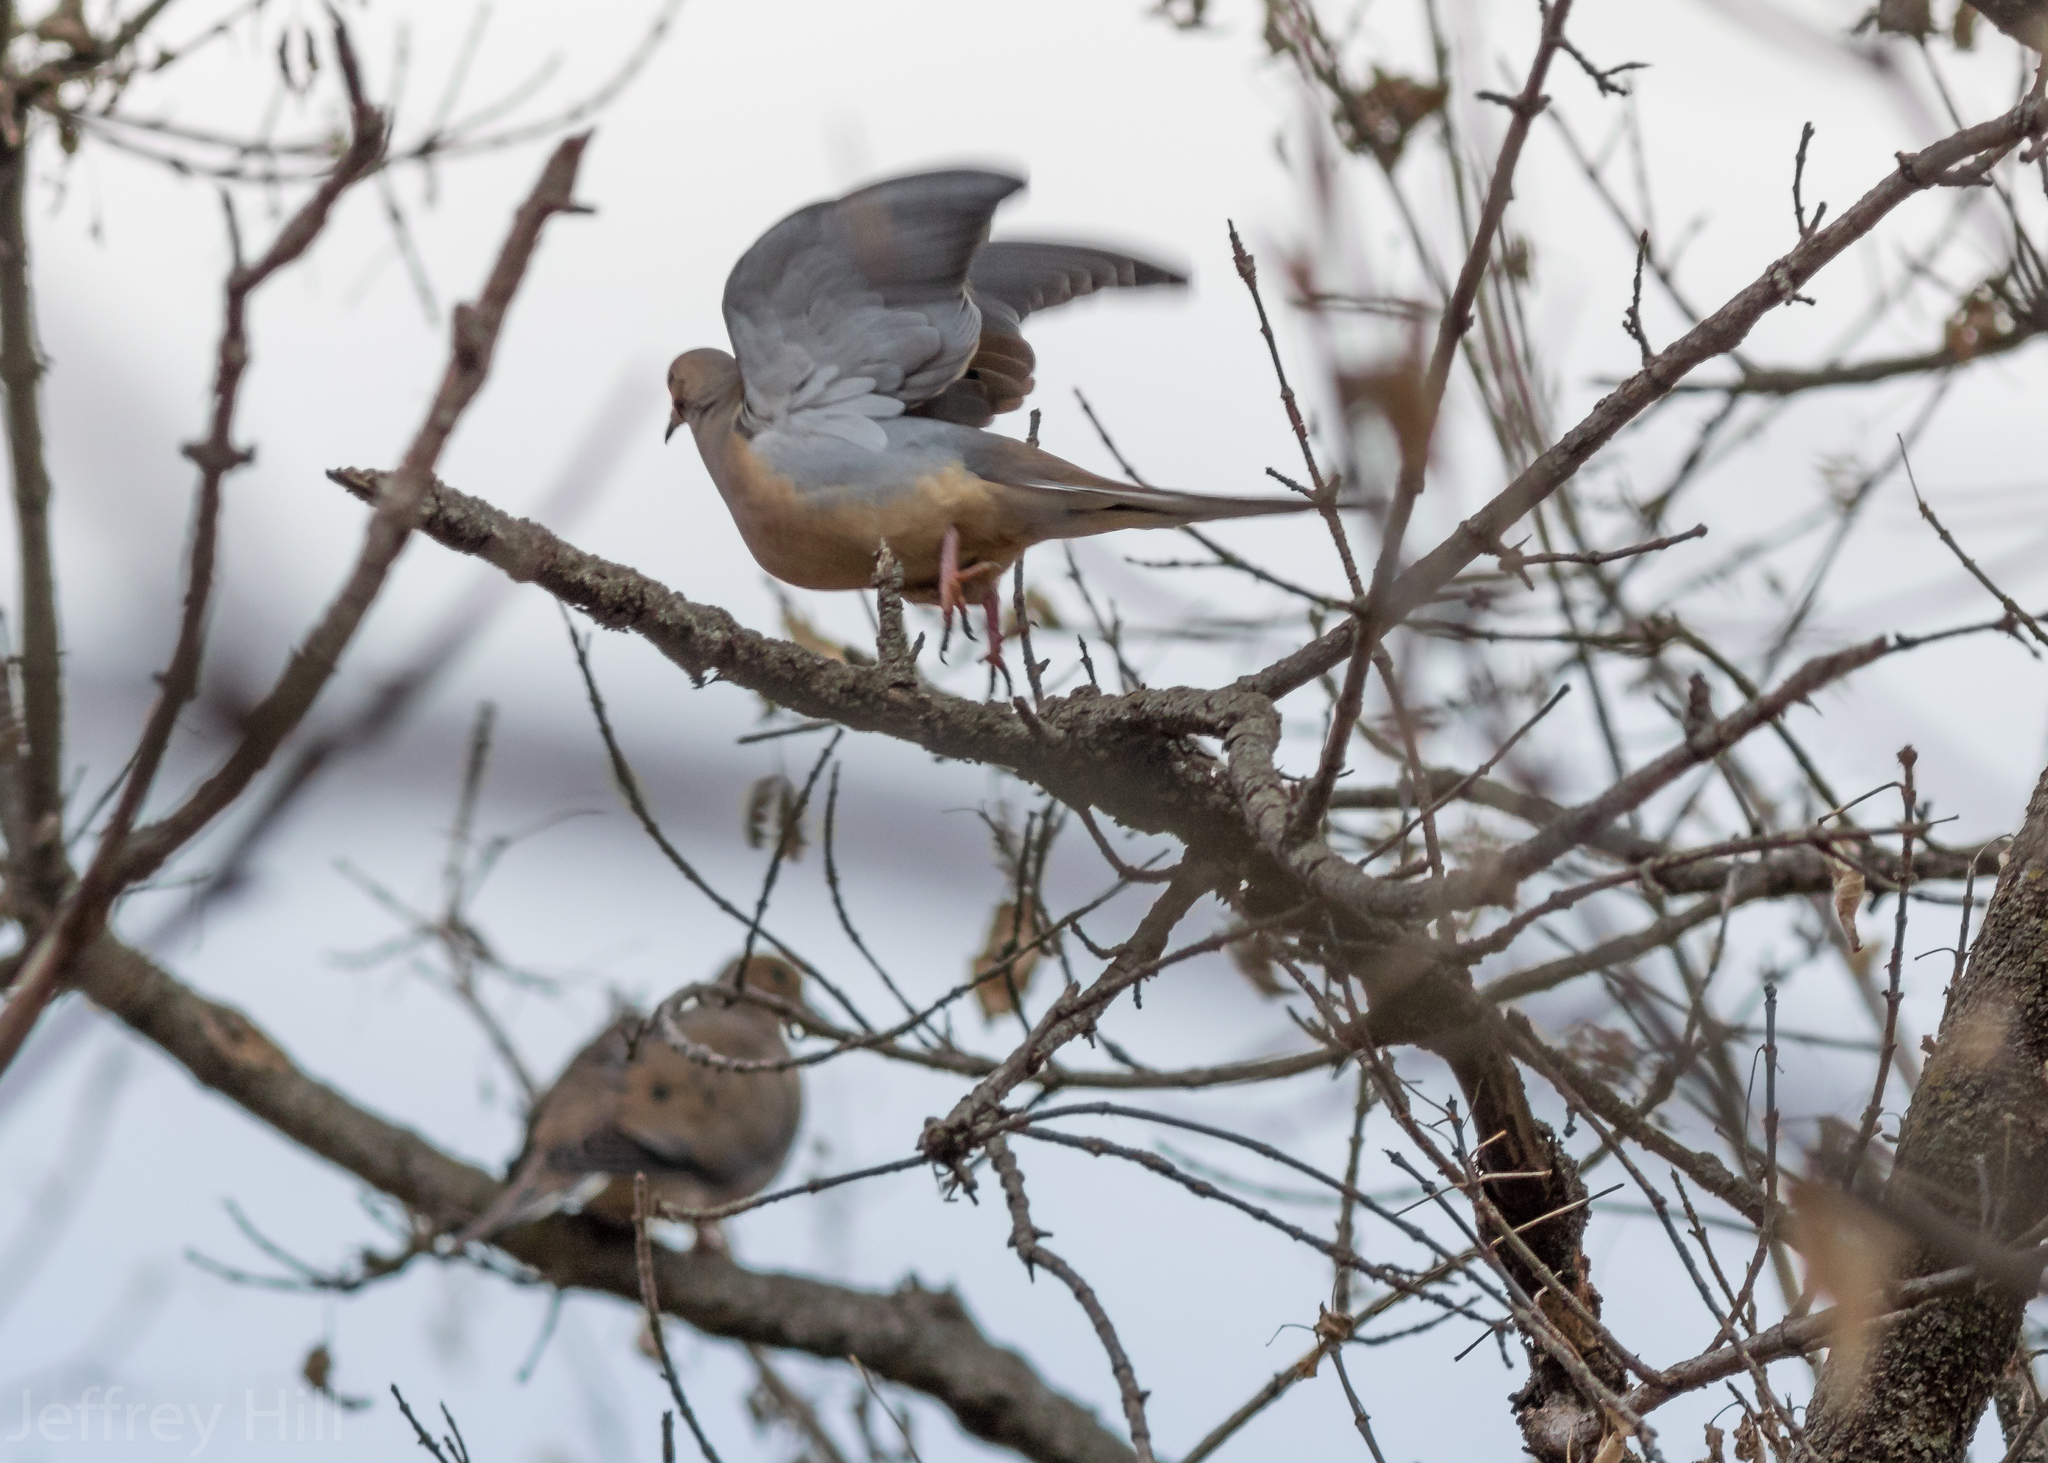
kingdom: Animalia
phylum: Chordata
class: Aves
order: Columbiformes
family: Columbidae
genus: Zenaida
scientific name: Zenaida macroura
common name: Mourning dove
